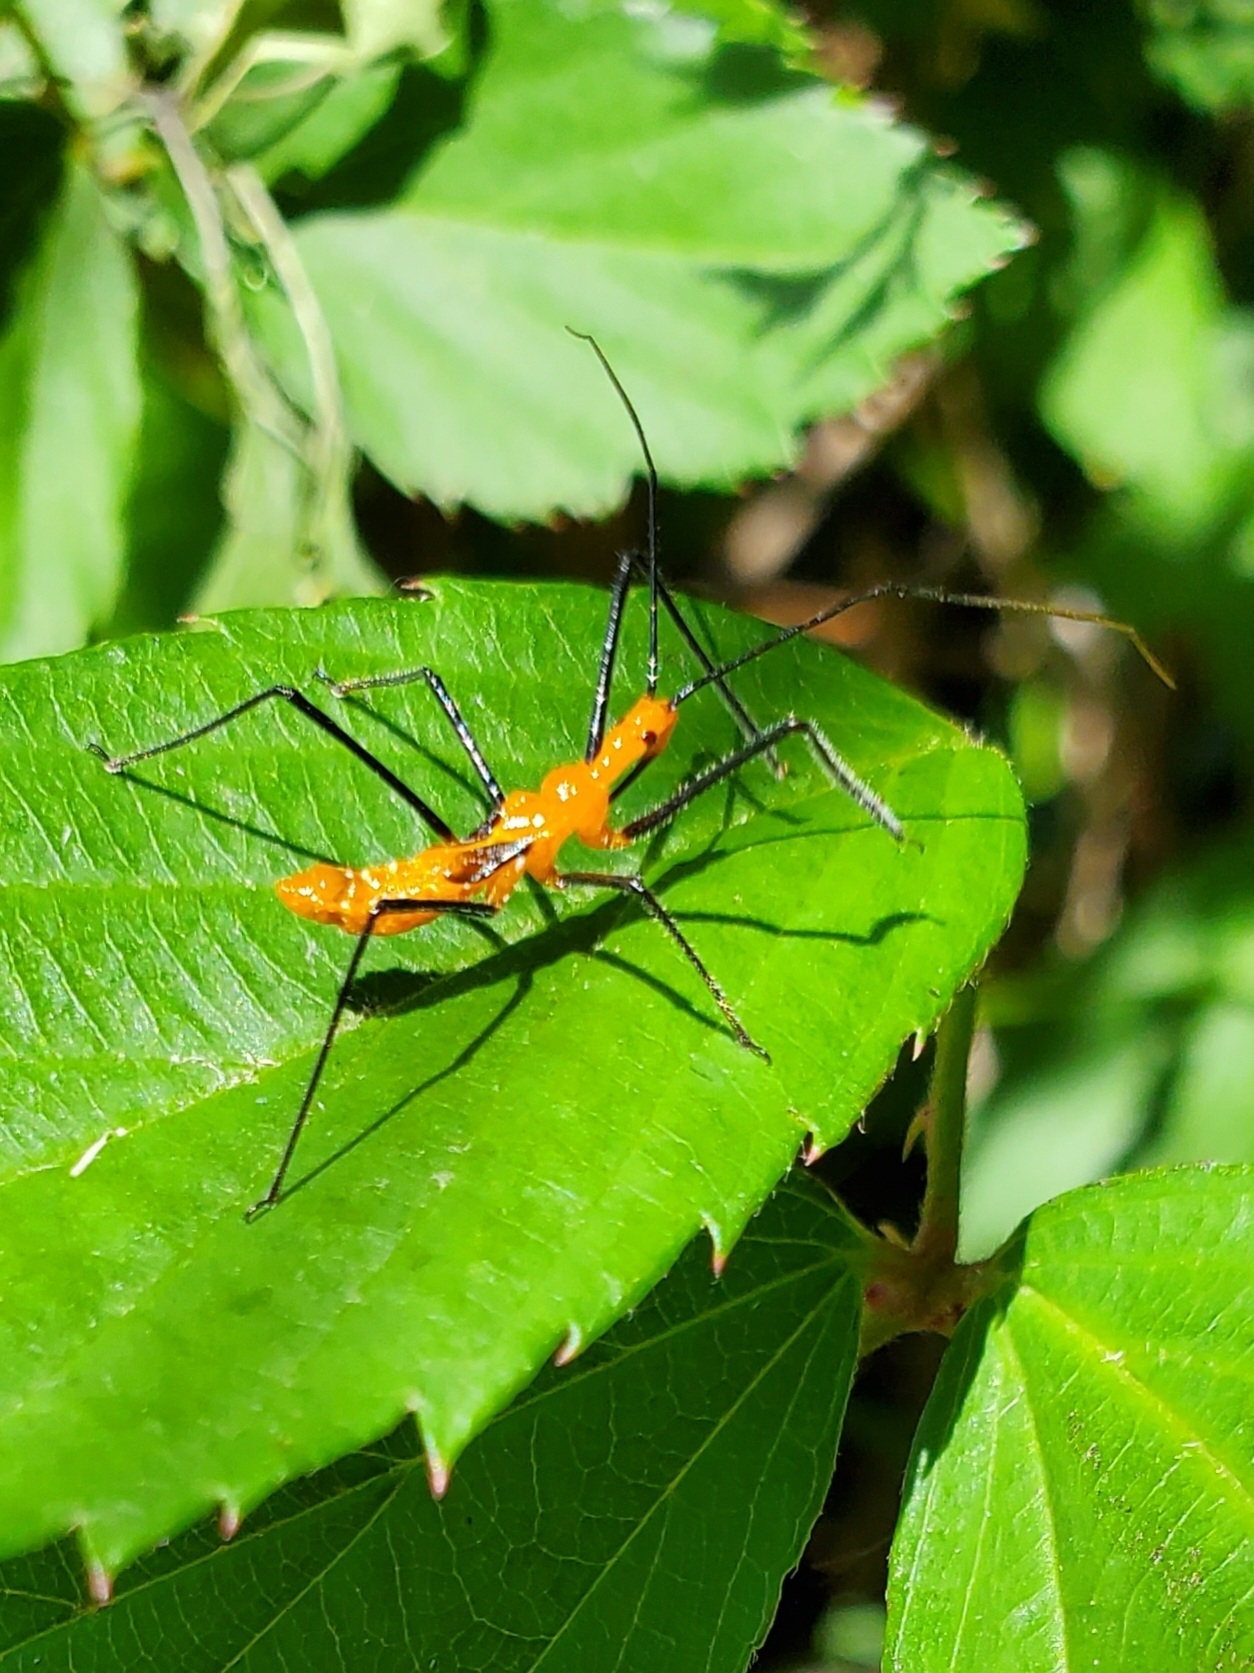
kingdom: Animalia
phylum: Arthropoda
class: Insecta
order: Hemiptera
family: Reduviidae
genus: Zelus
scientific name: Zelus longipes
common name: Milkweed assassin bug
